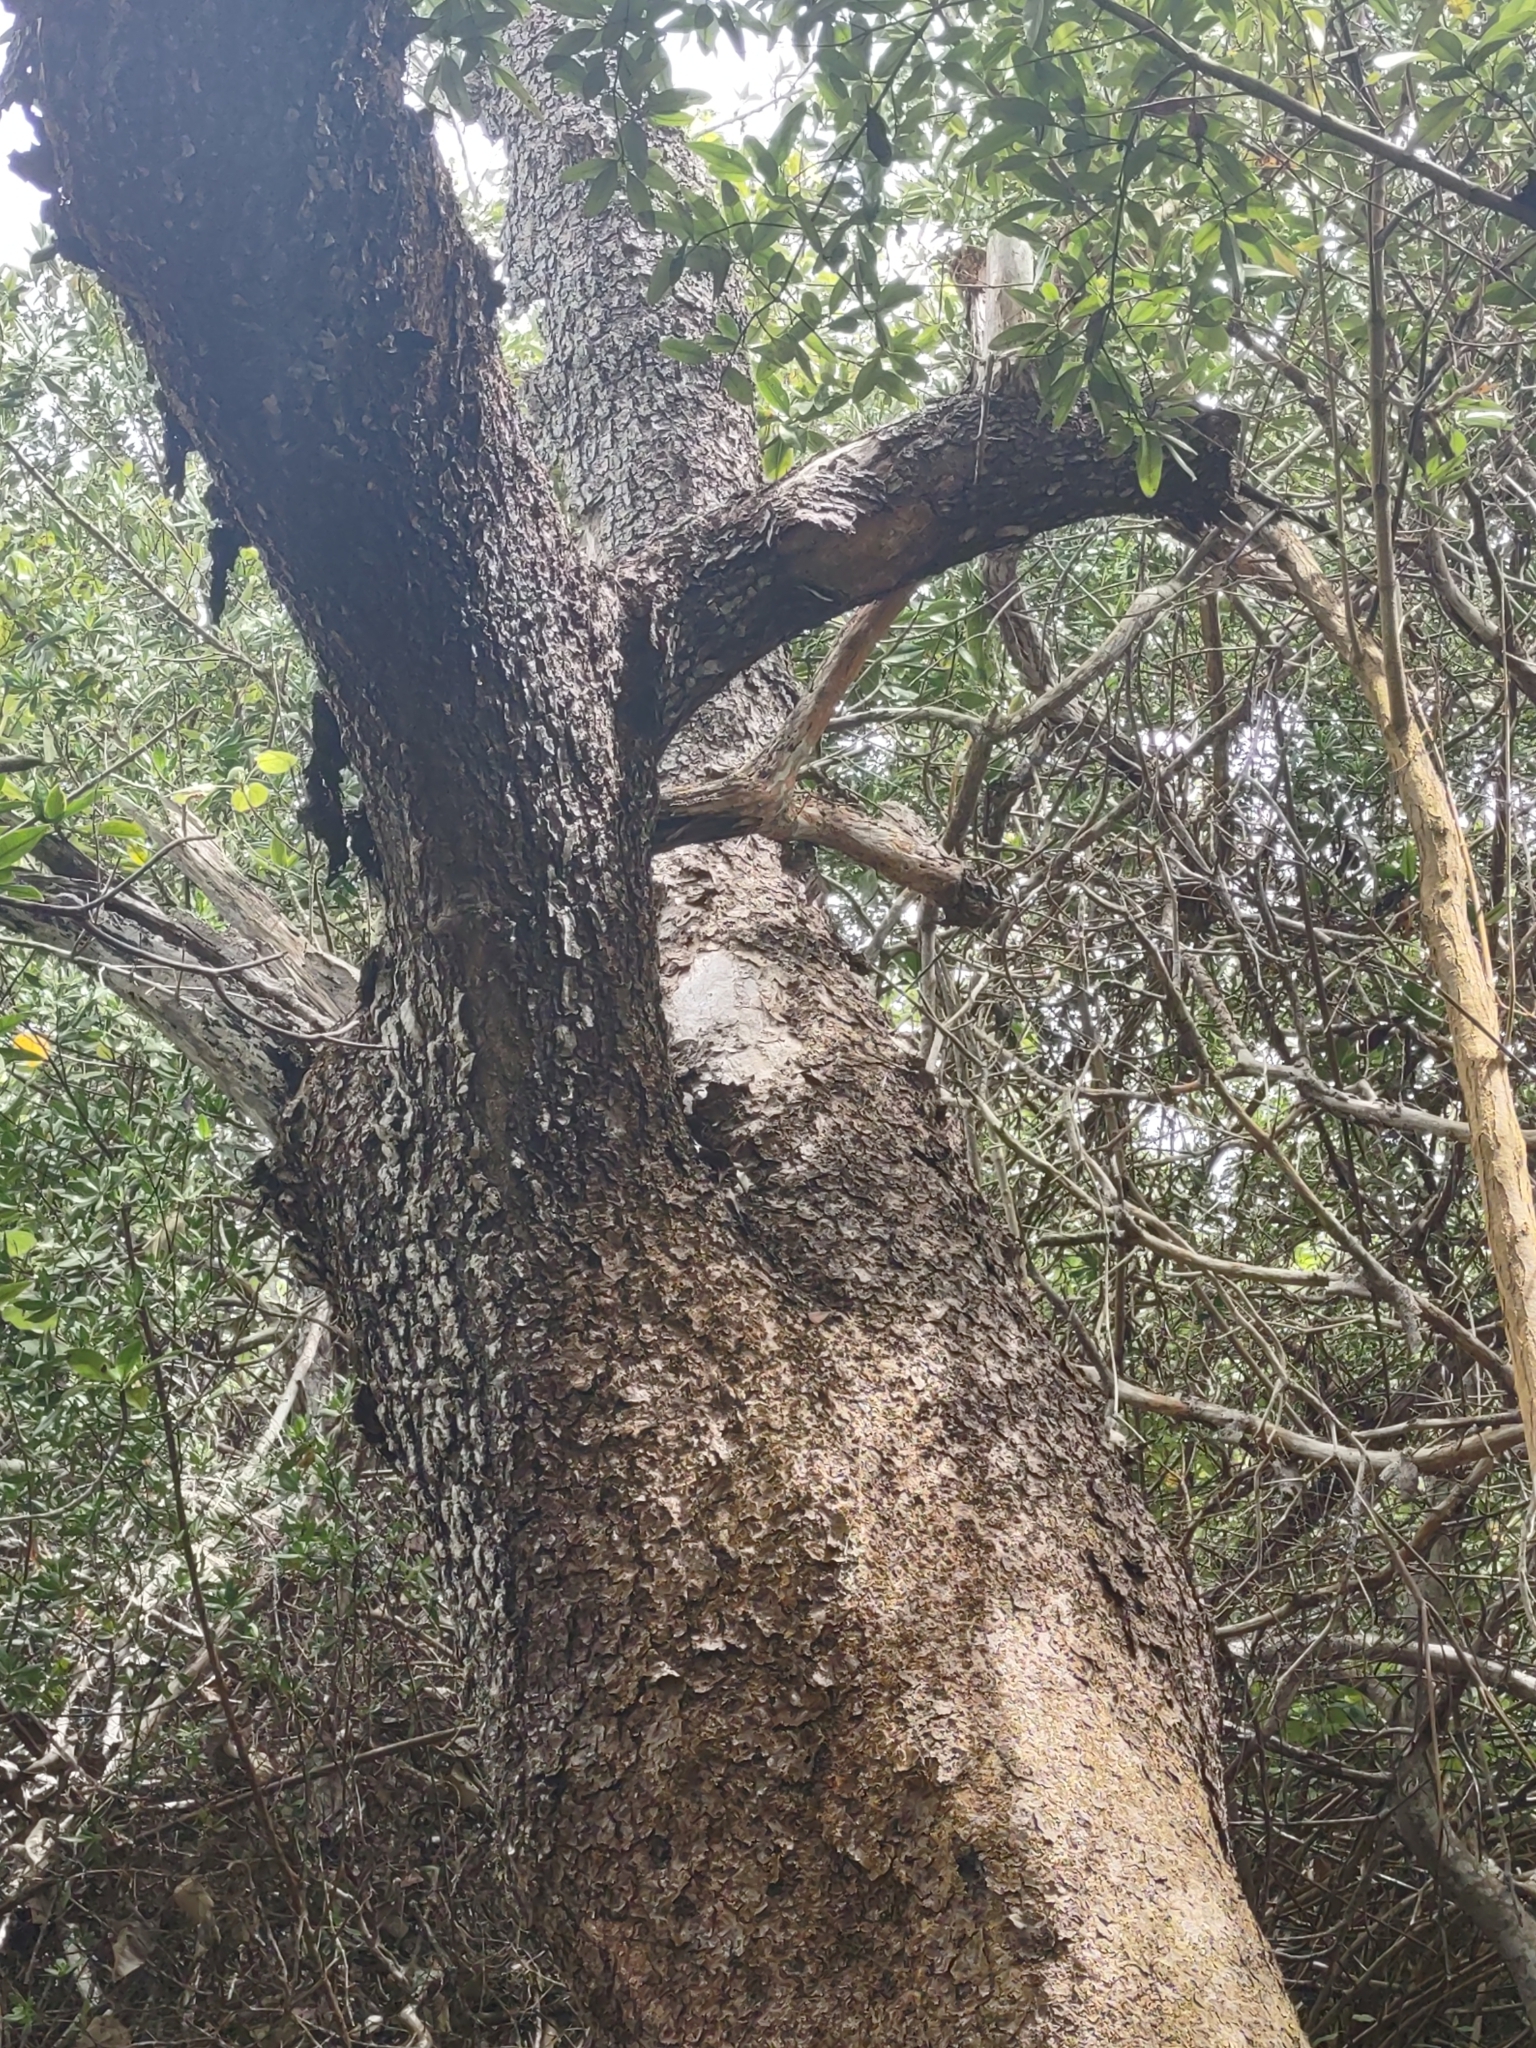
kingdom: Plantae
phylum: Tracheophyta
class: Magnoliopsida
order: Lamiales
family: Acanthaceae
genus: Avicennia
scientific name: Avicennia germinans
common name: Black mangrove
